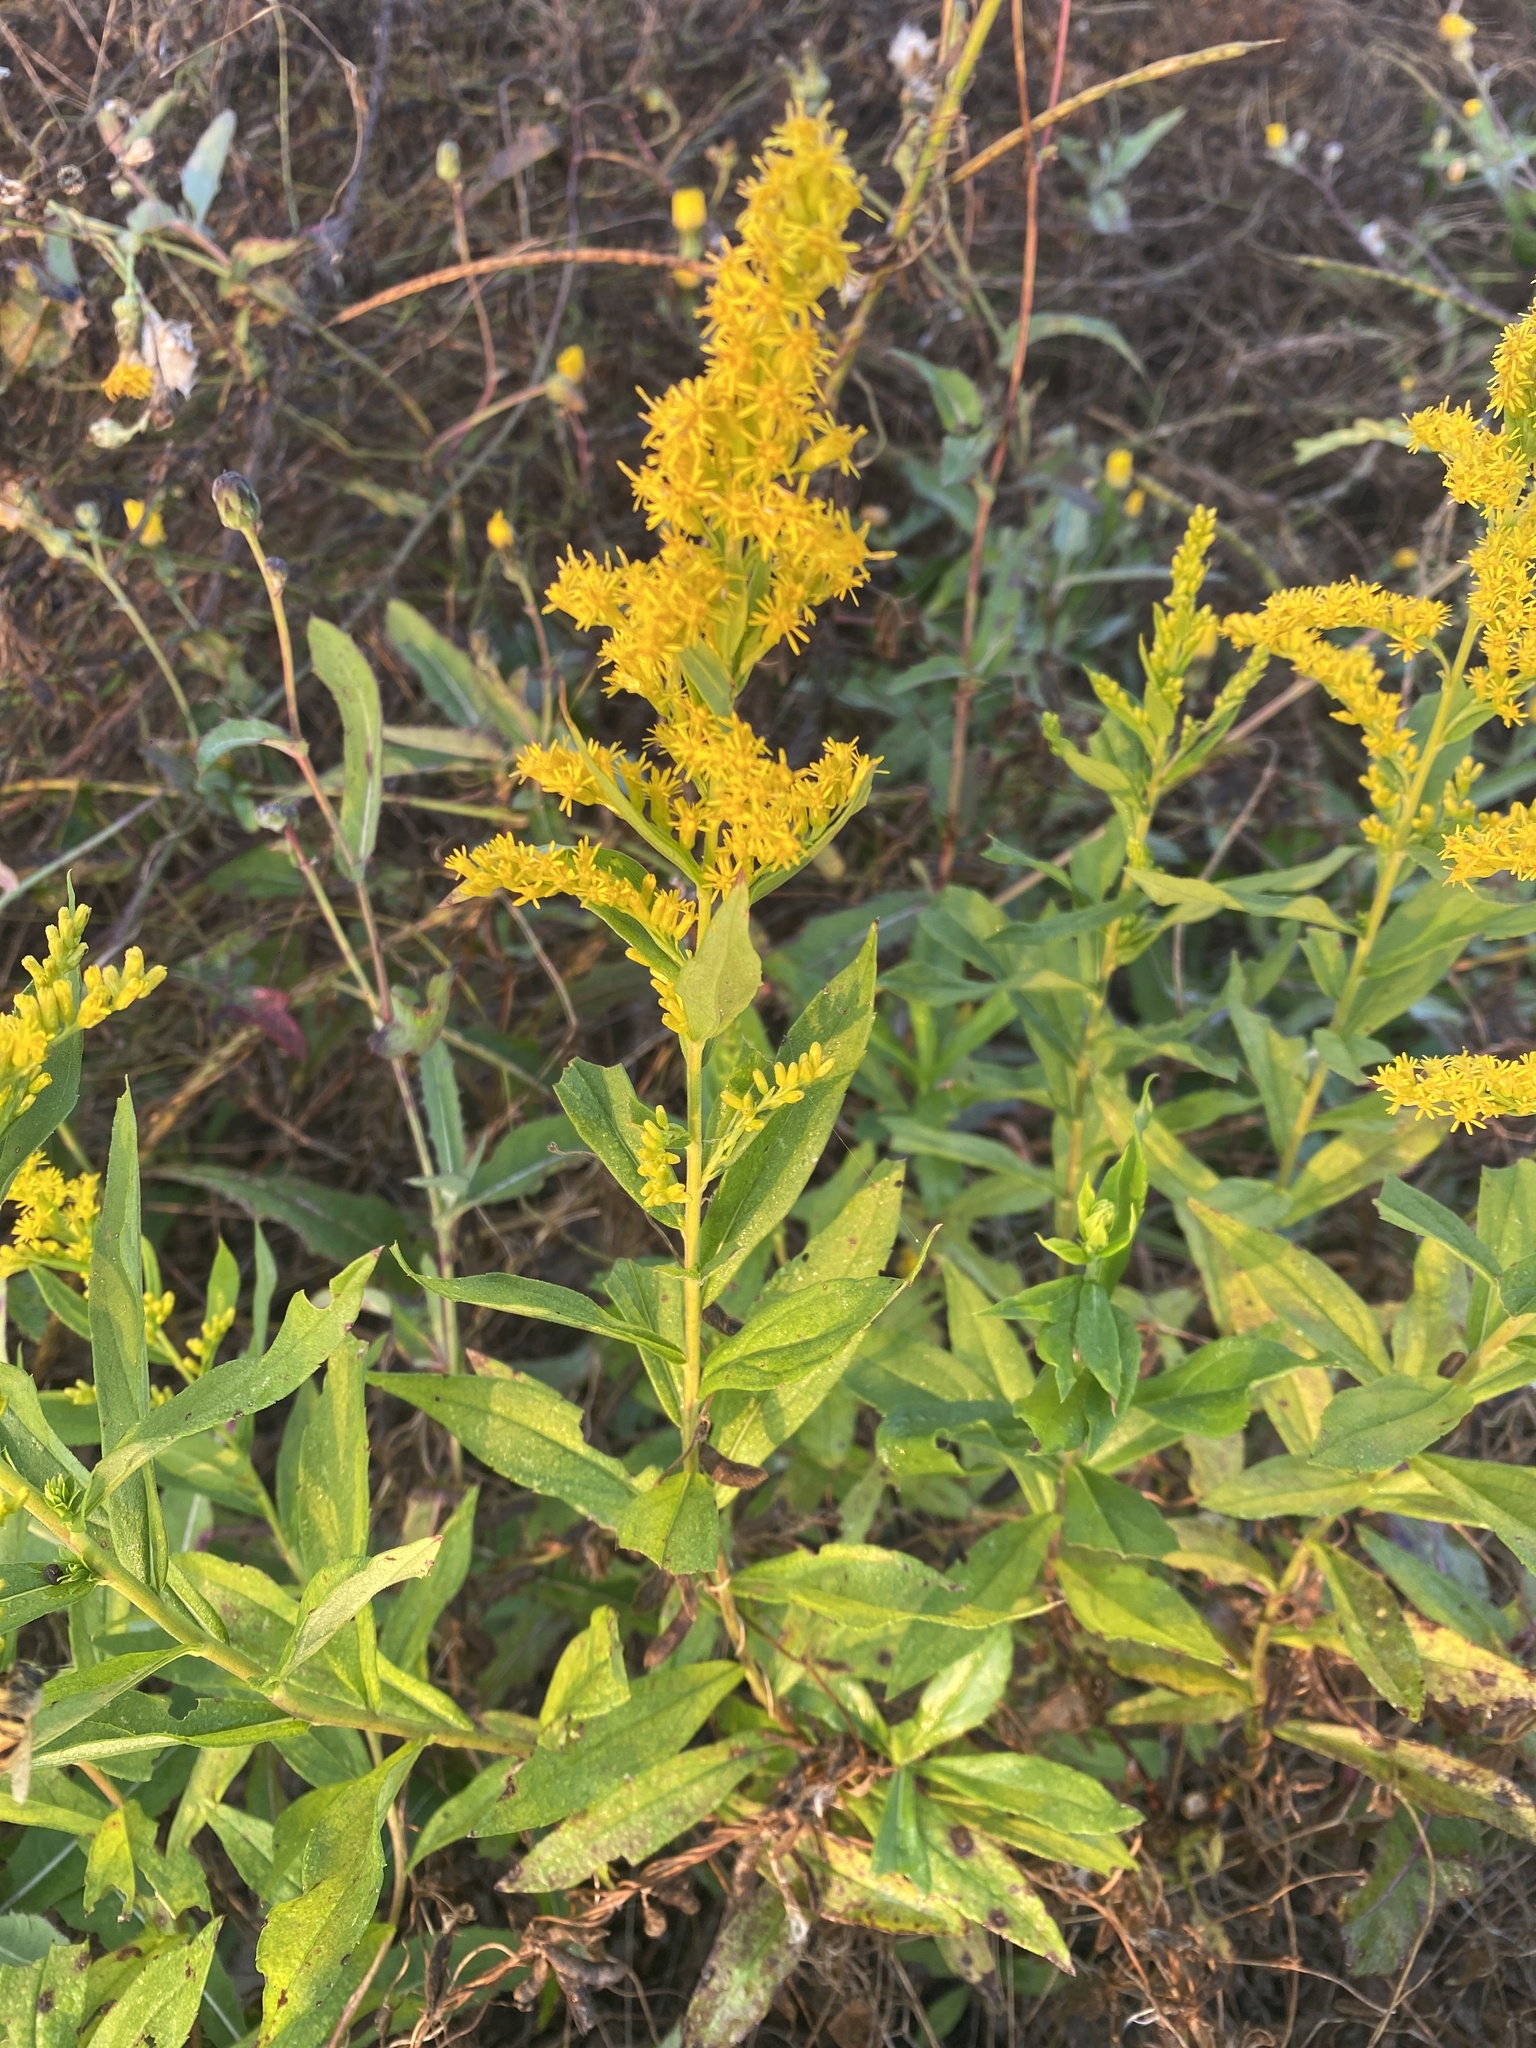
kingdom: Plantae
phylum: Tracheophyta
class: Magnoliopsida
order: Asterales
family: Asteraceae
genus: Solidago
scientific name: Solidago altissima
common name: Late goldenrod
